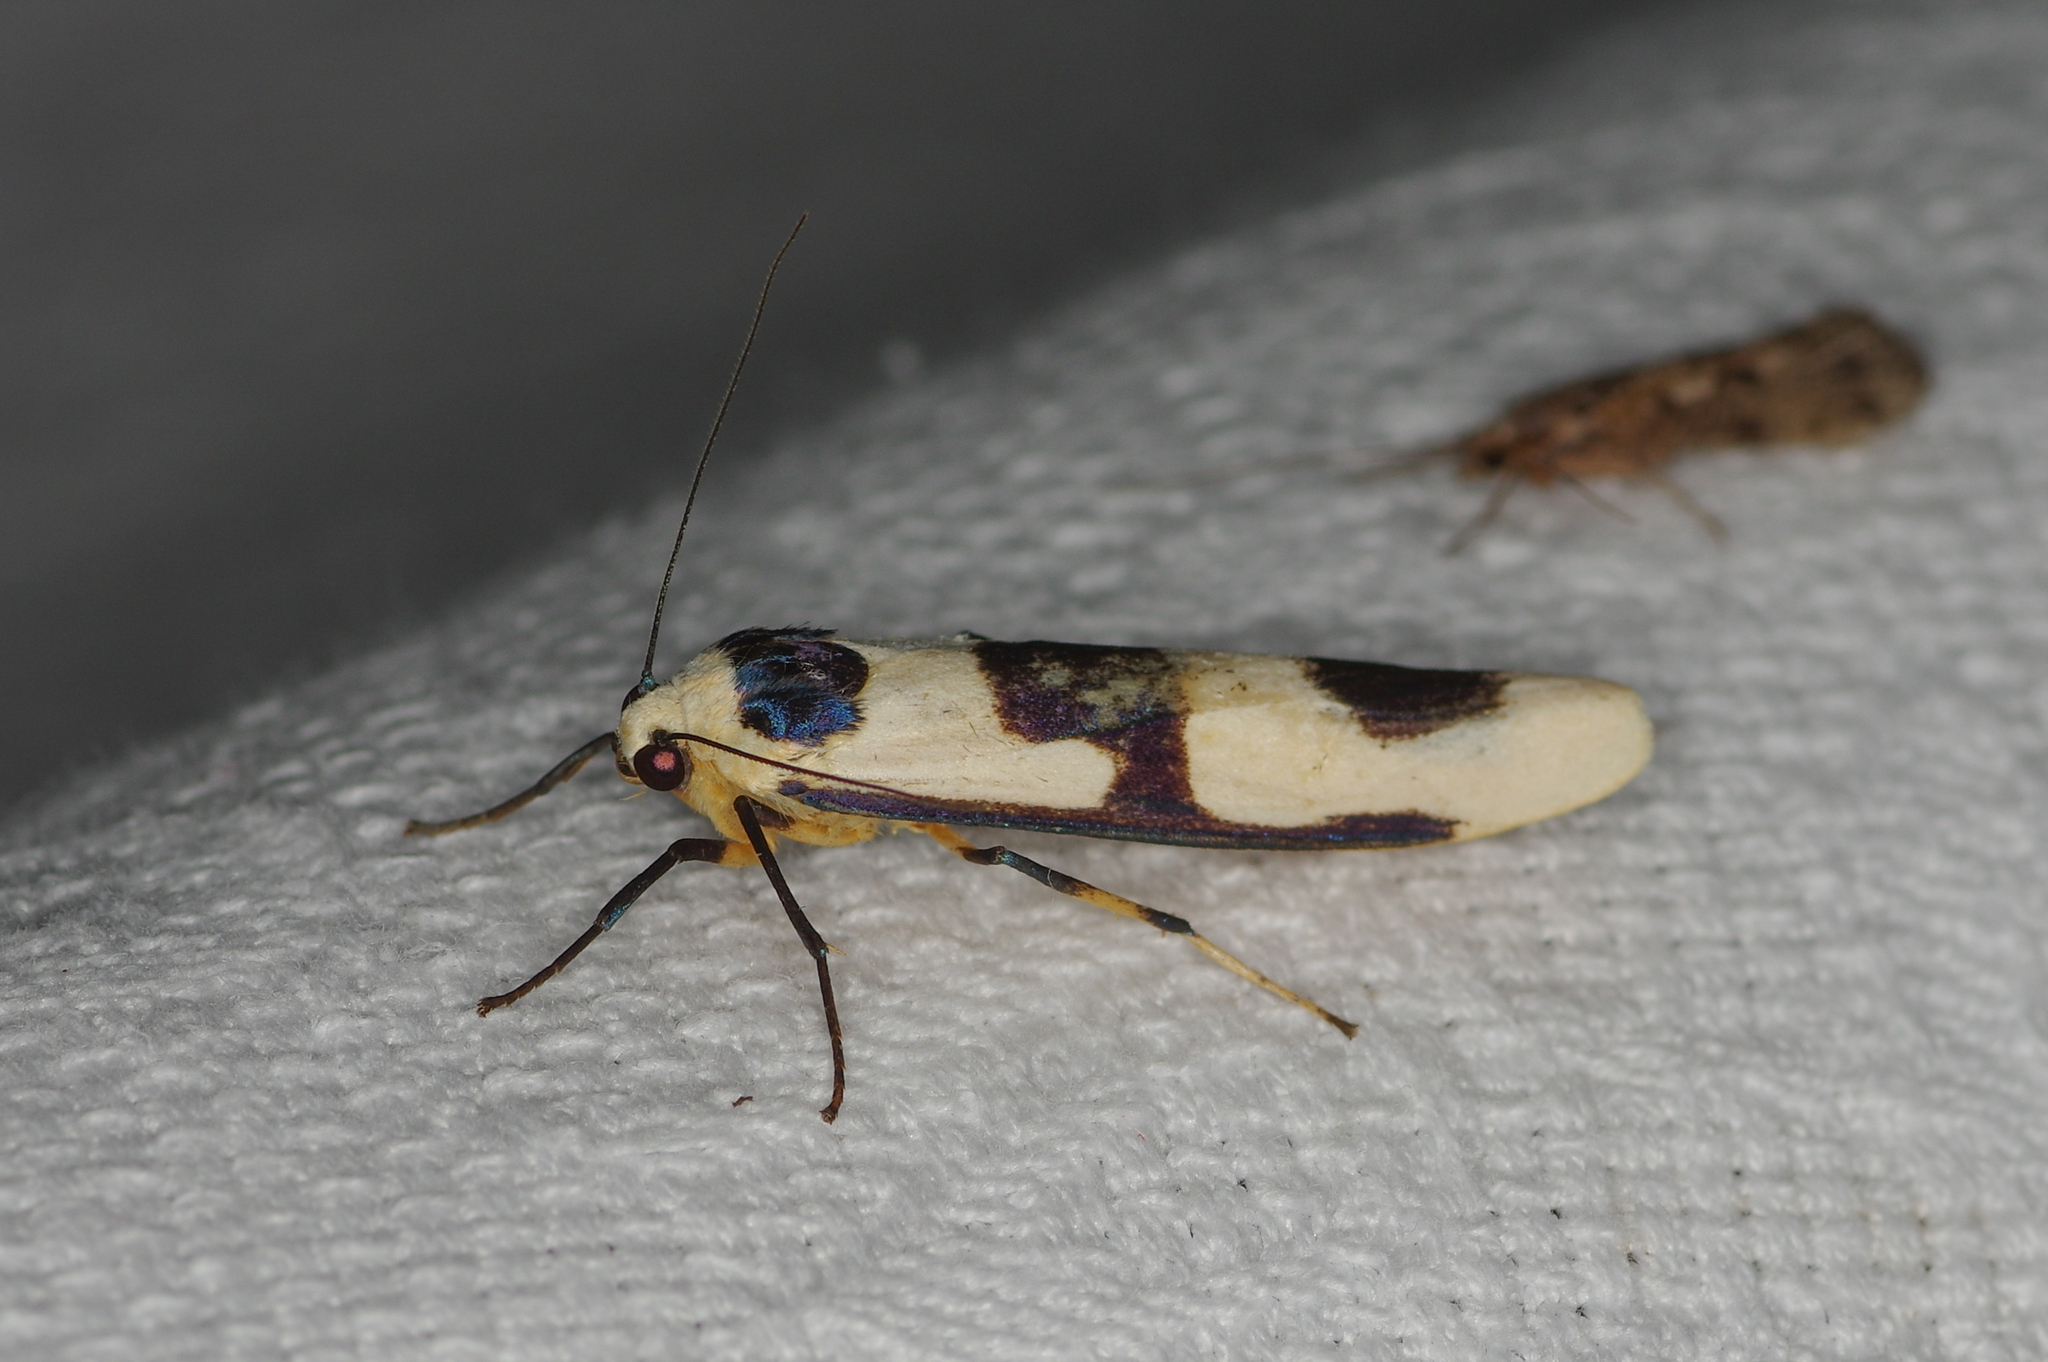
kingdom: Animalia
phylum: Arthropoda
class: Insecta
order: Lepidoptera
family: Erebidae
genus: Oeonistis
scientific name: Oeonistis altica
